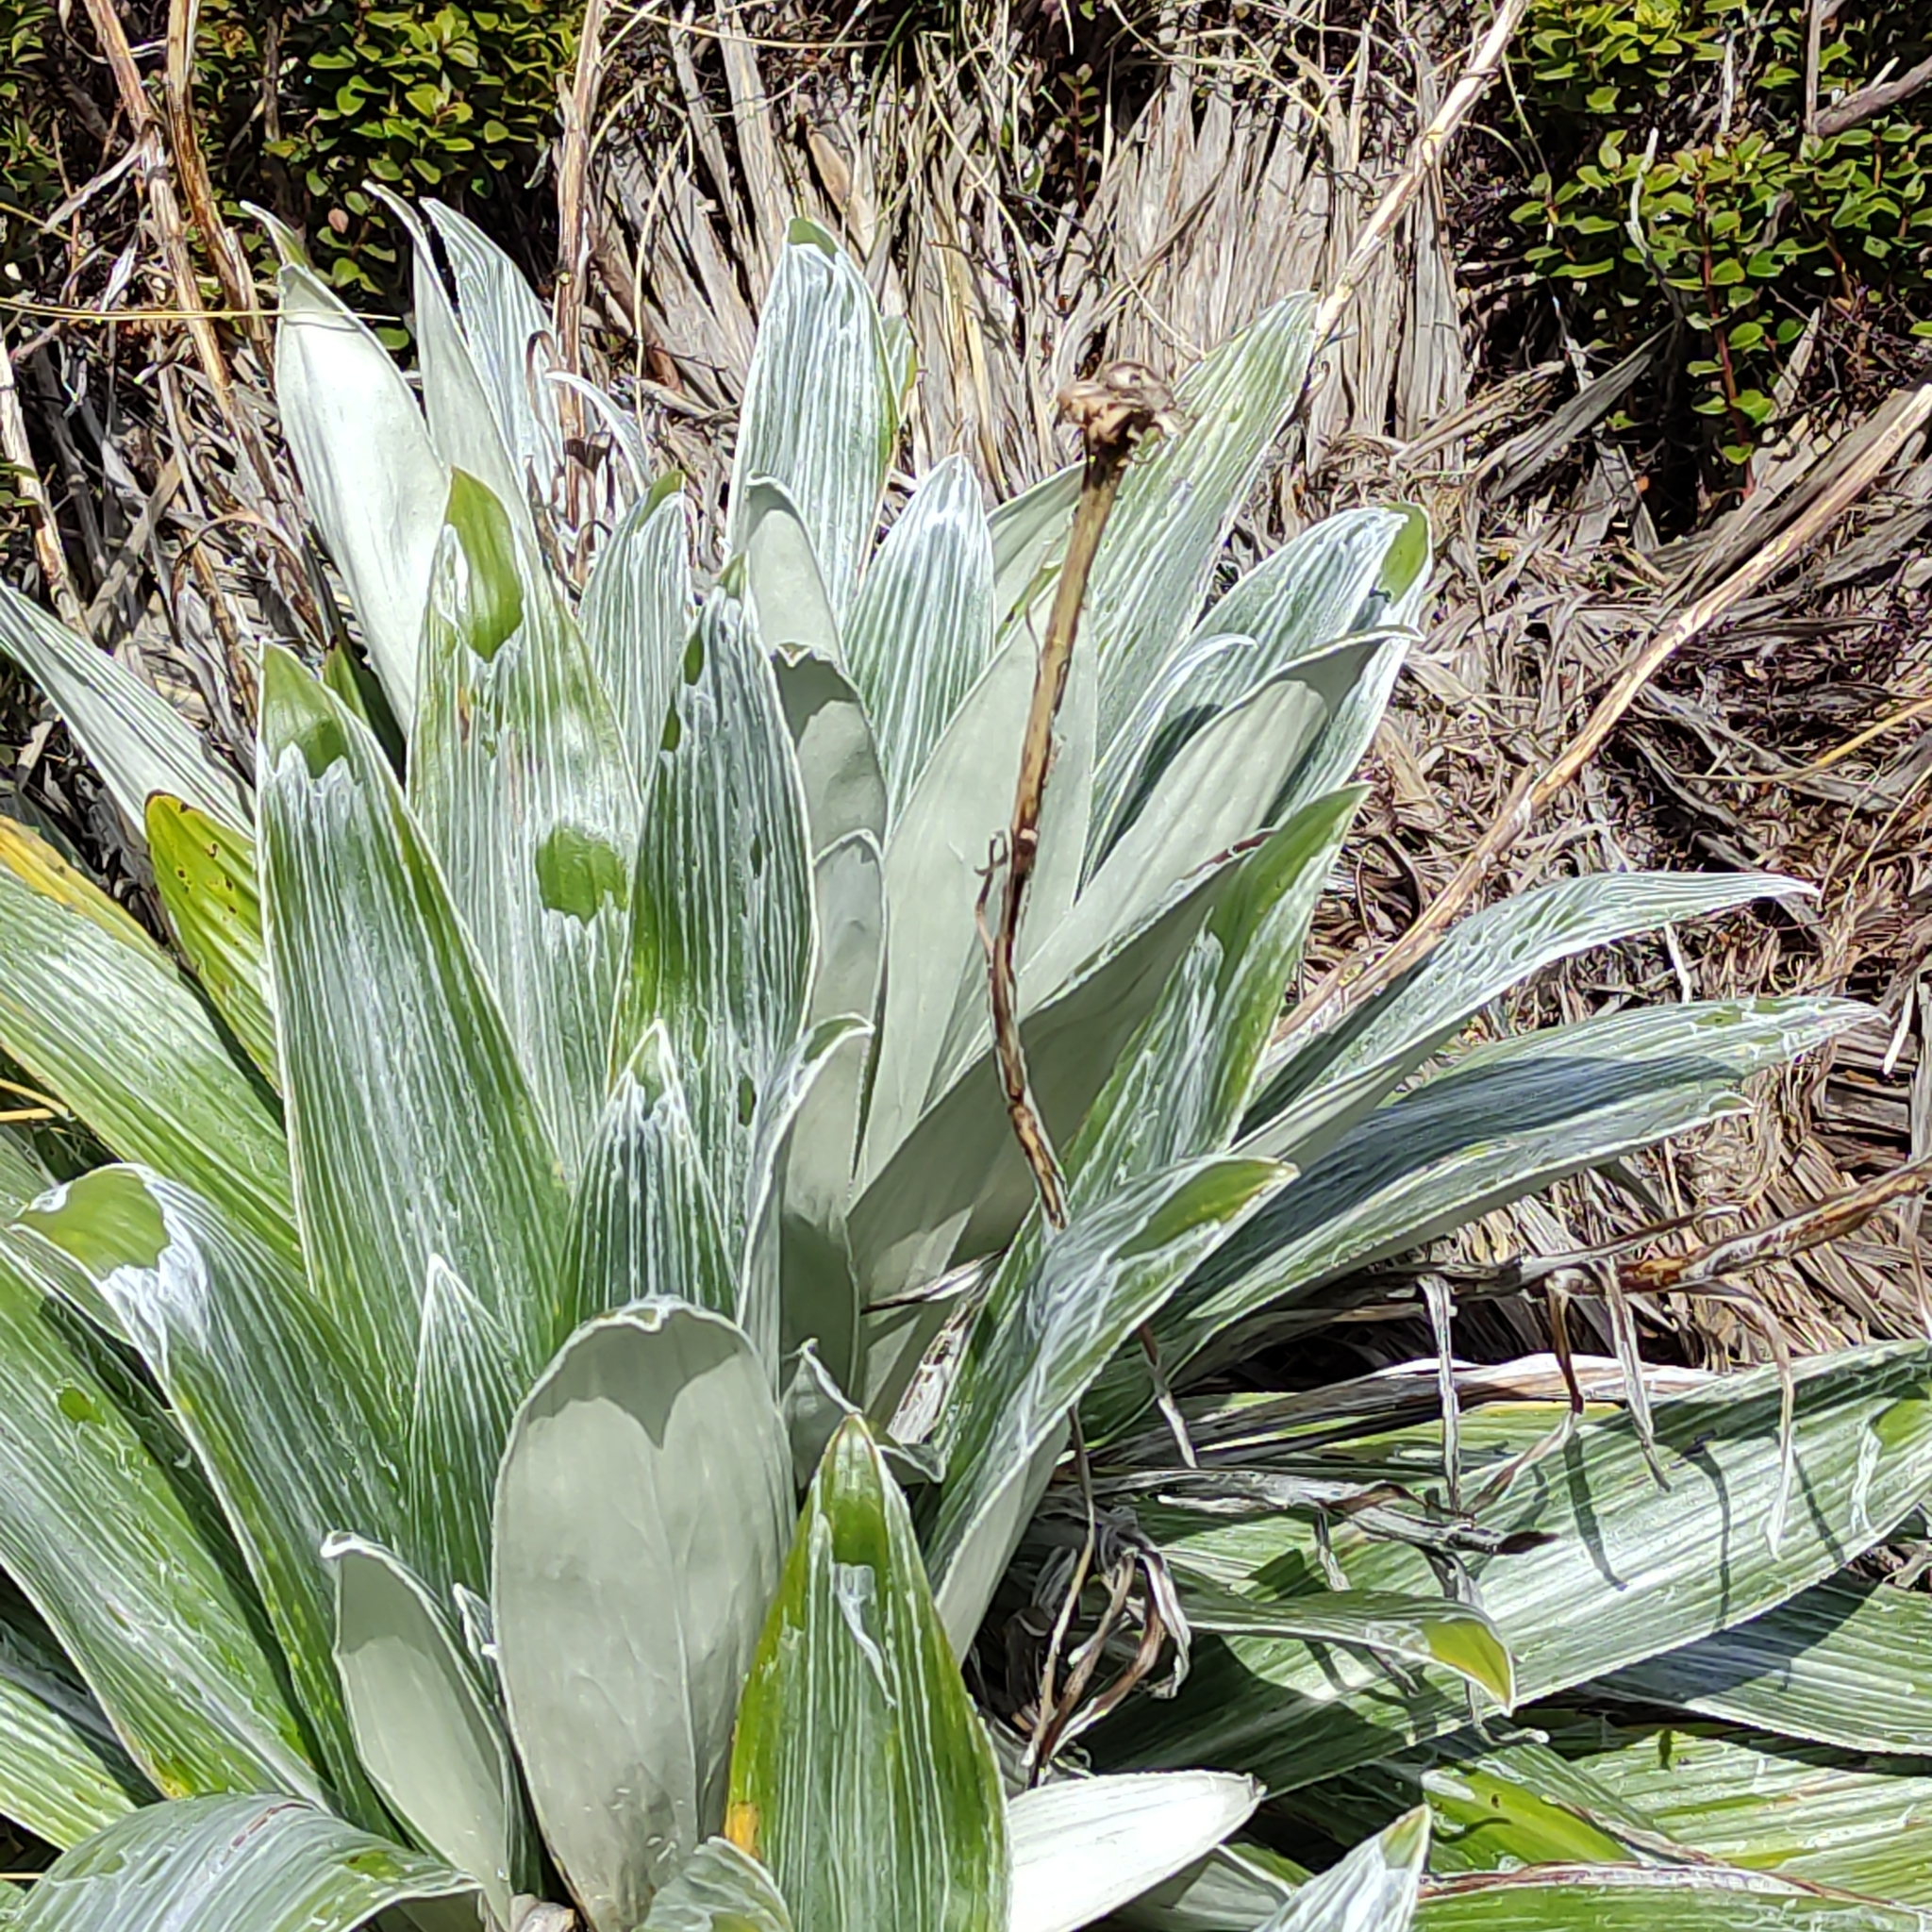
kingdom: Plantae
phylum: Tracheophyta
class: Magnoliopsida
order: Asterales
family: Asteraceae
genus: Celmisia
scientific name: Celmisia semicordata
